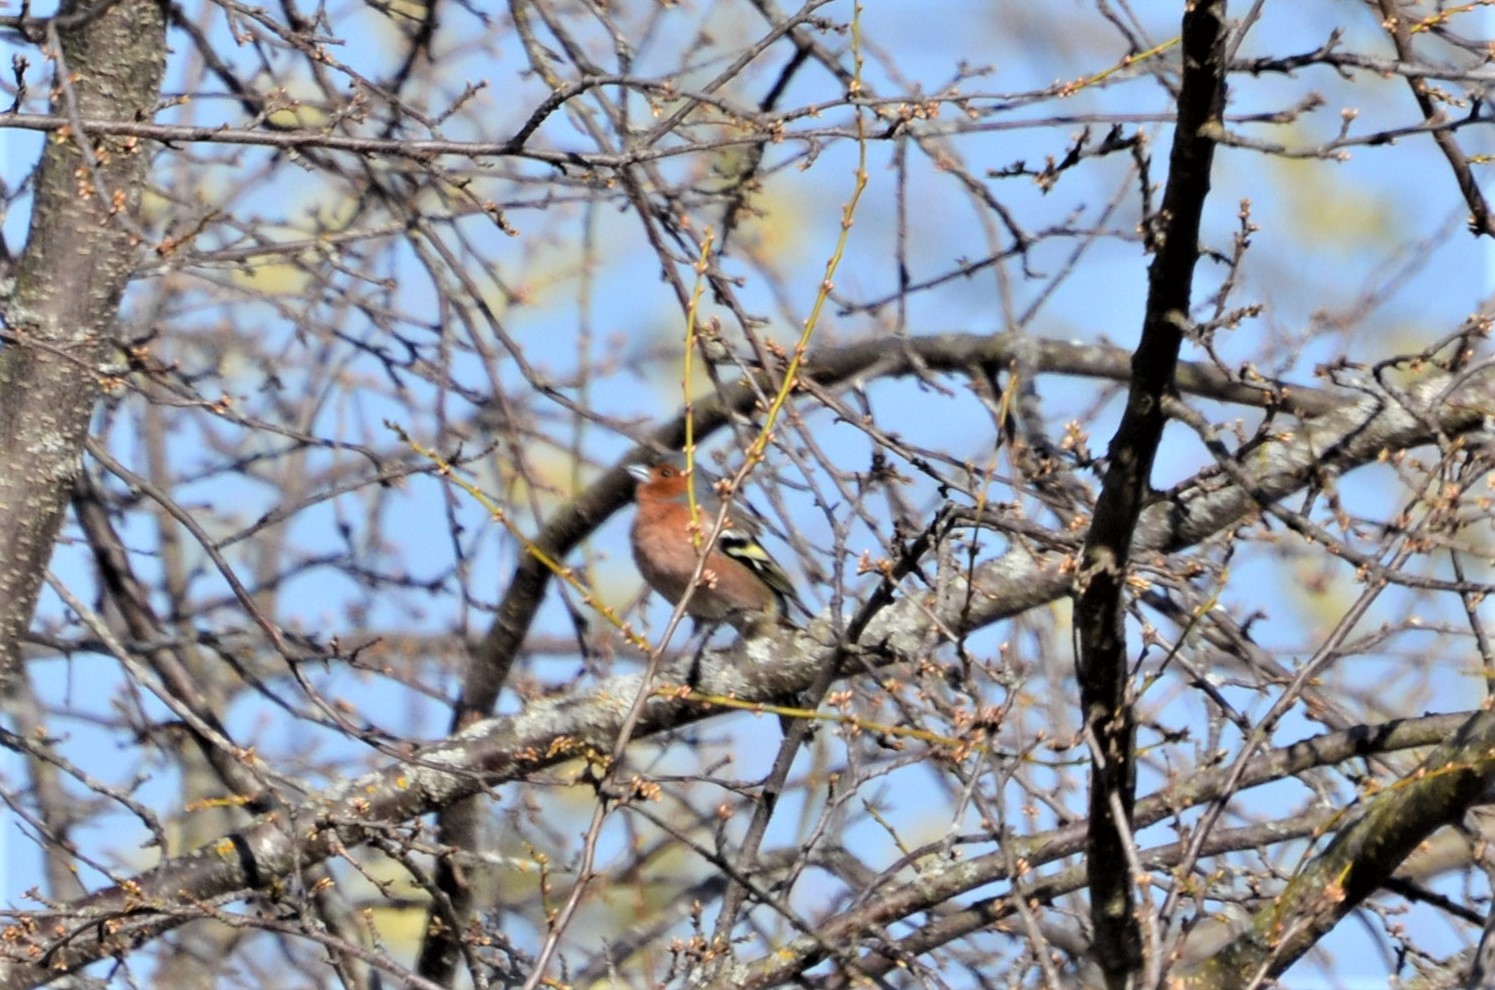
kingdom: Animalia
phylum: Chordata
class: Aves
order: Passeriformes
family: Fringillidae
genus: Fringilla
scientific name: Fringilla coelebs
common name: Common chaffinch
